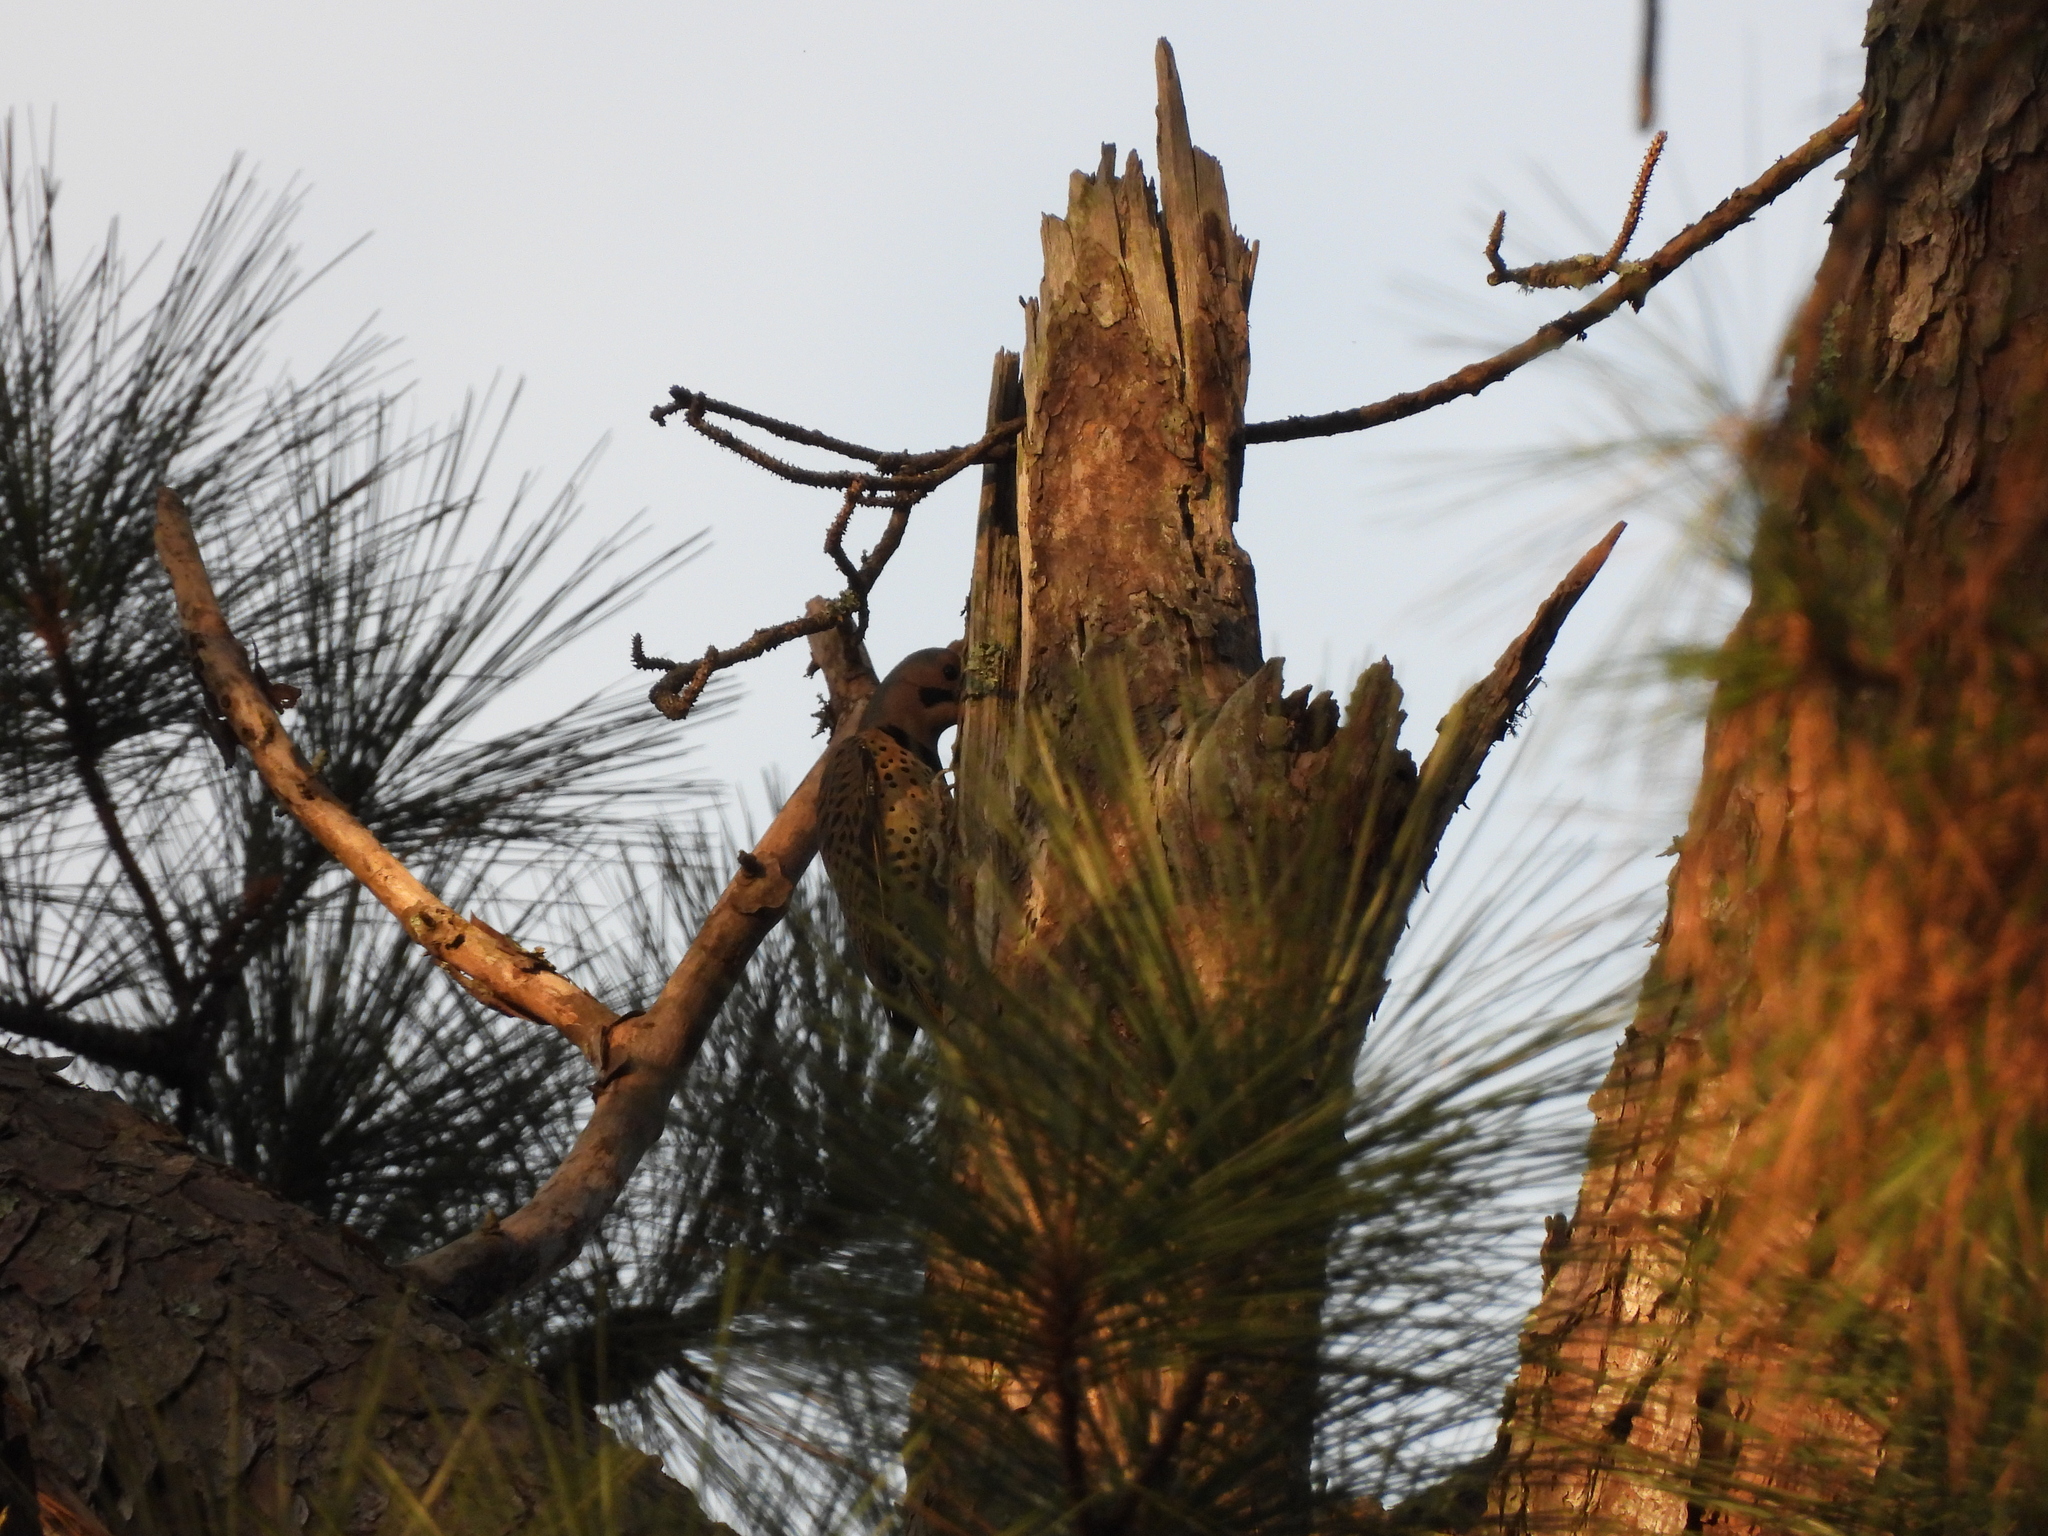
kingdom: Animalia
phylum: Chordata
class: Aves
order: Piciformes
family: Picidae
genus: Colaptes
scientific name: Colaptes auratus
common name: Northern flicker
